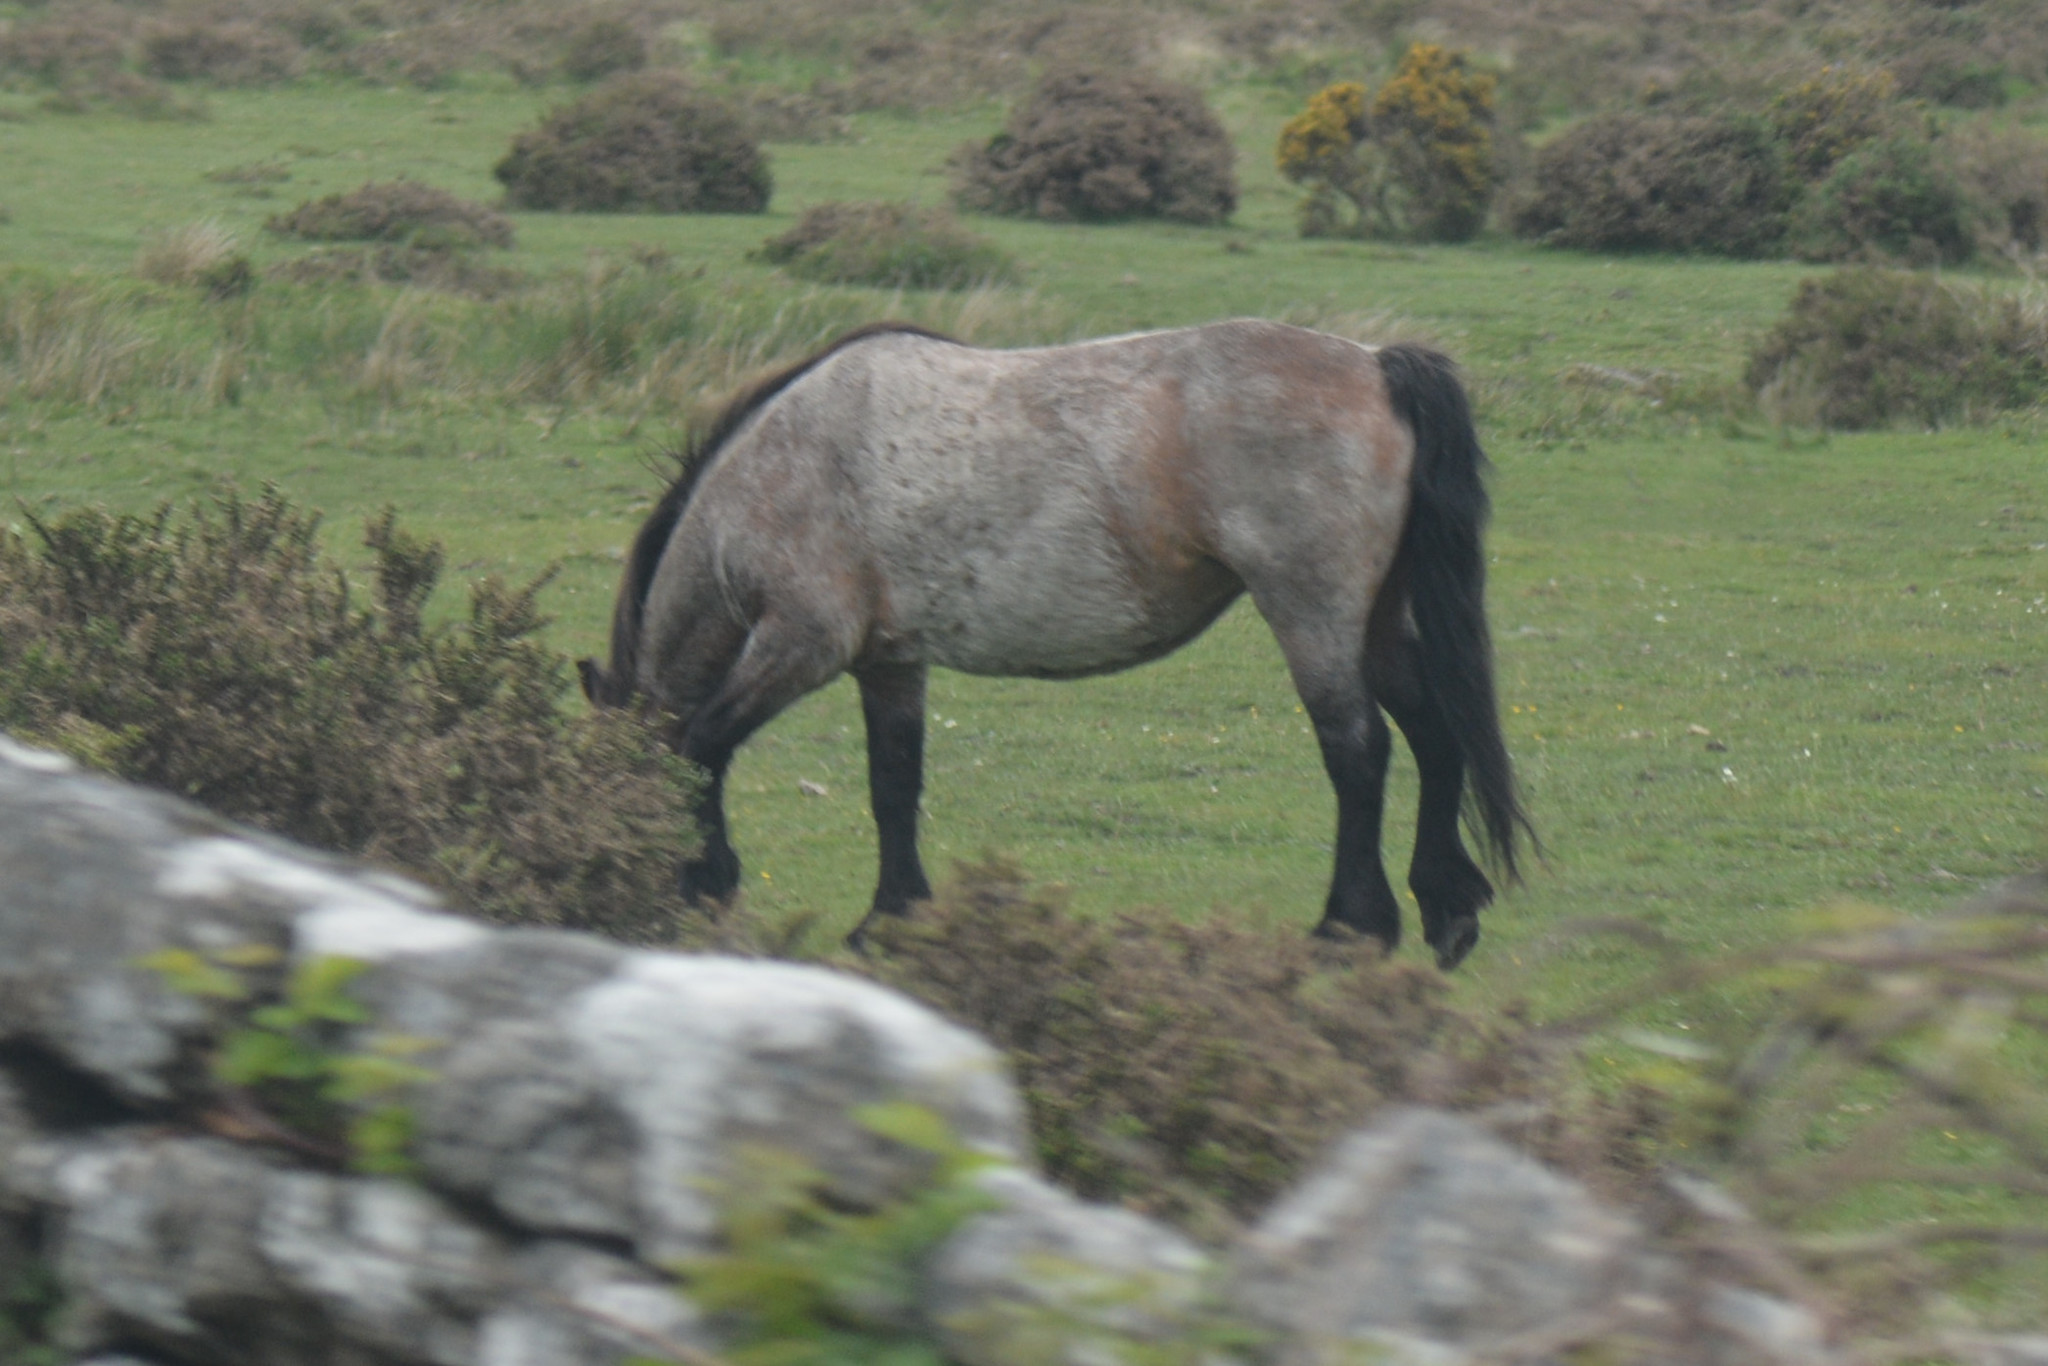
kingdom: Animalia
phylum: Chordata
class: Mammalia
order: Perissodactyla
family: Equidae
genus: Equus
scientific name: Equus caballus
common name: Horse
